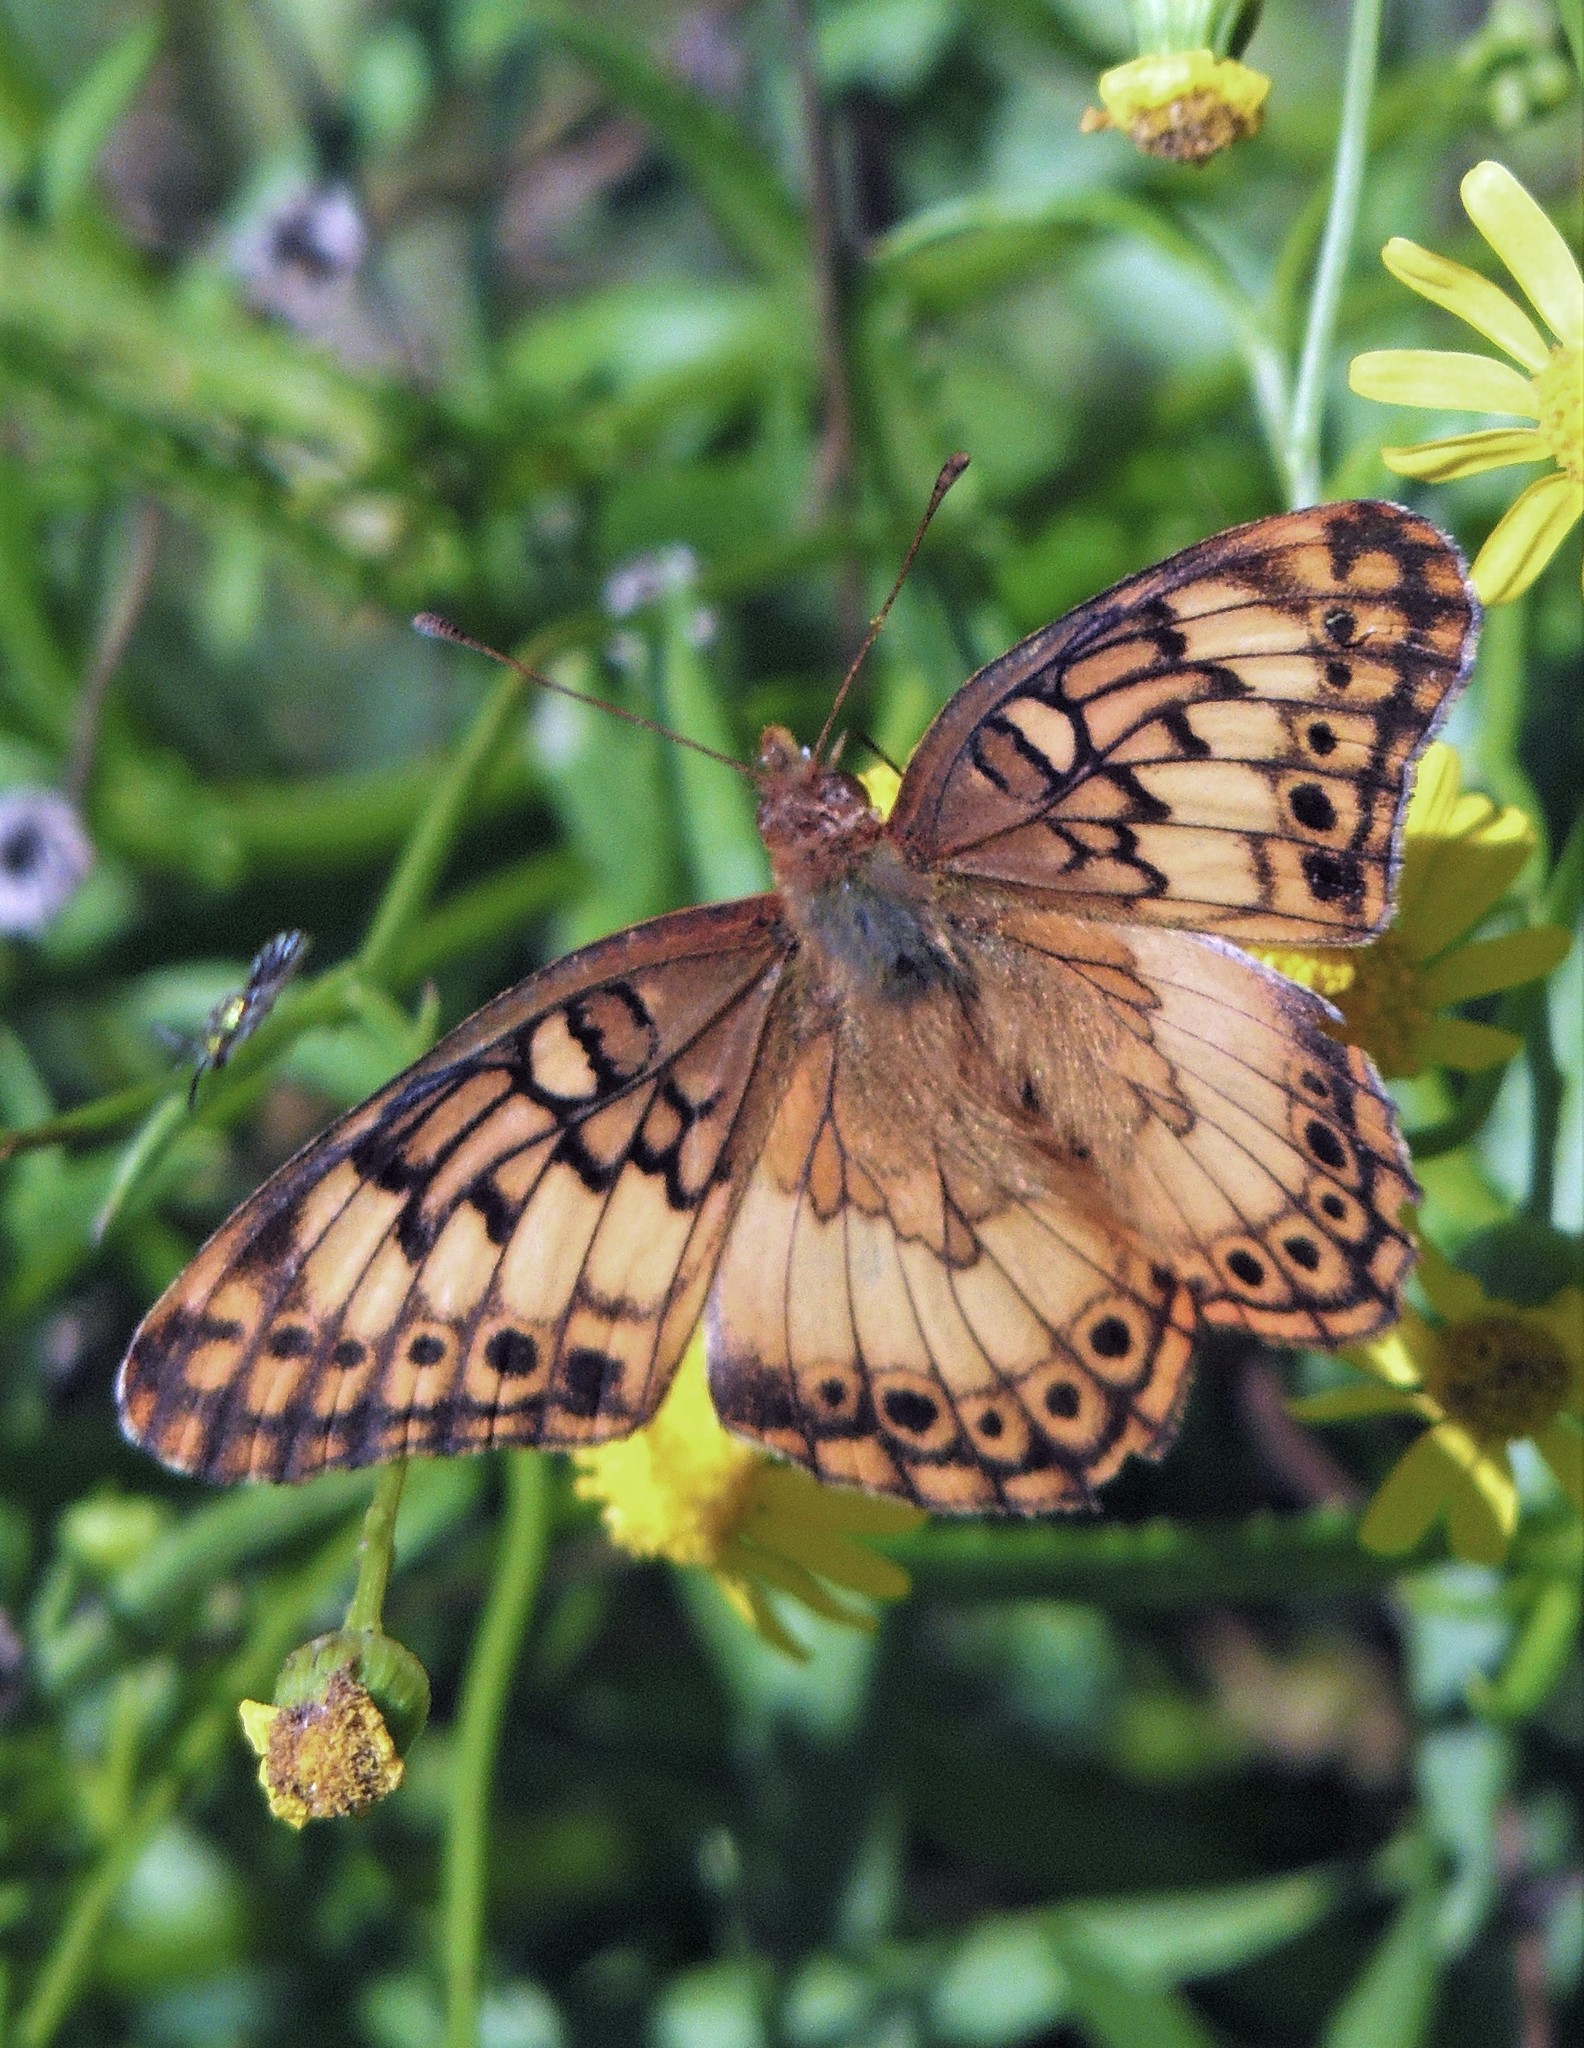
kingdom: Animalia
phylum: Arthropoda
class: Insecta
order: Lepidoptera
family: Nymphalidae
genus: Euptoieta
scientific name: Euptoieta hortensia
